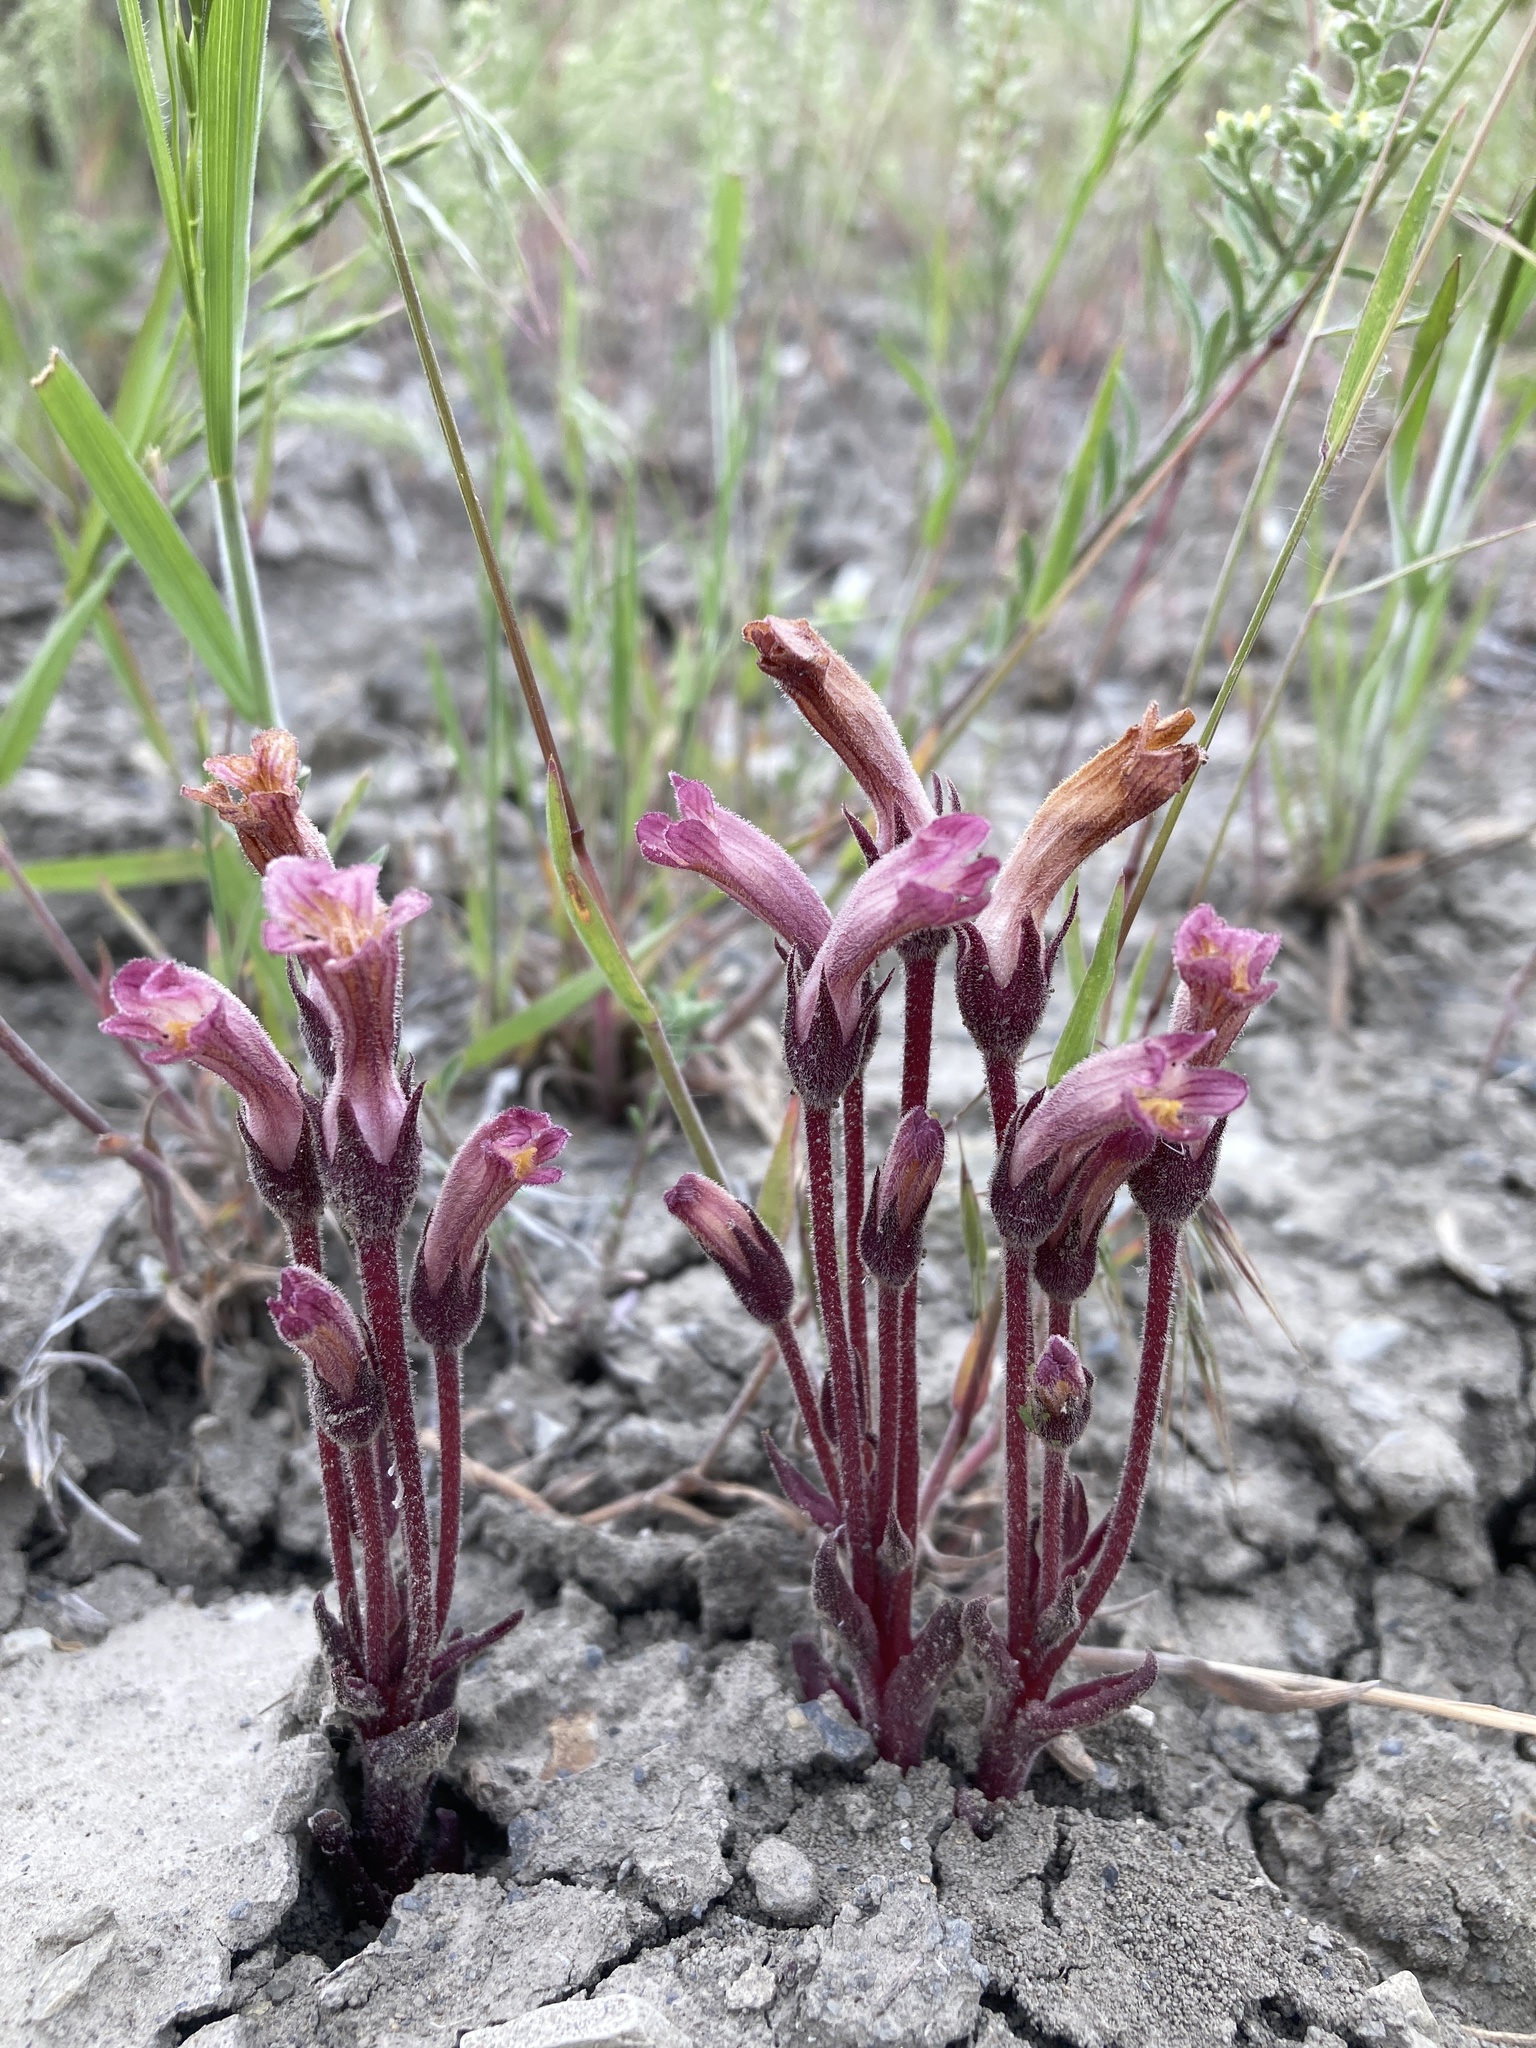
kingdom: Plantae
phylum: Tracheophyta
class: Magnoliopsida
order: Lamiales
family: Orobanchaceae
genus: Aphyllon
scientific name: Aphyllon fasciculatum
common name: Clustered broomrape
